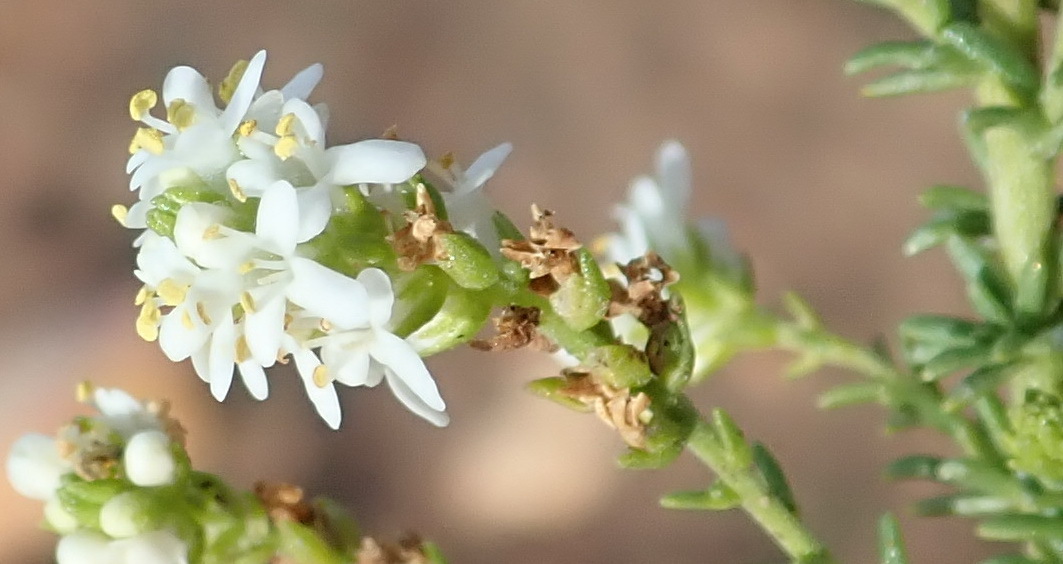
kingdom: Plantae
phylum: Tracheophyta
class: Magnoliopsida
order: Lamiales
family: Scrophulariaceae
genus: Selago
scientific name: Selago gracilis
